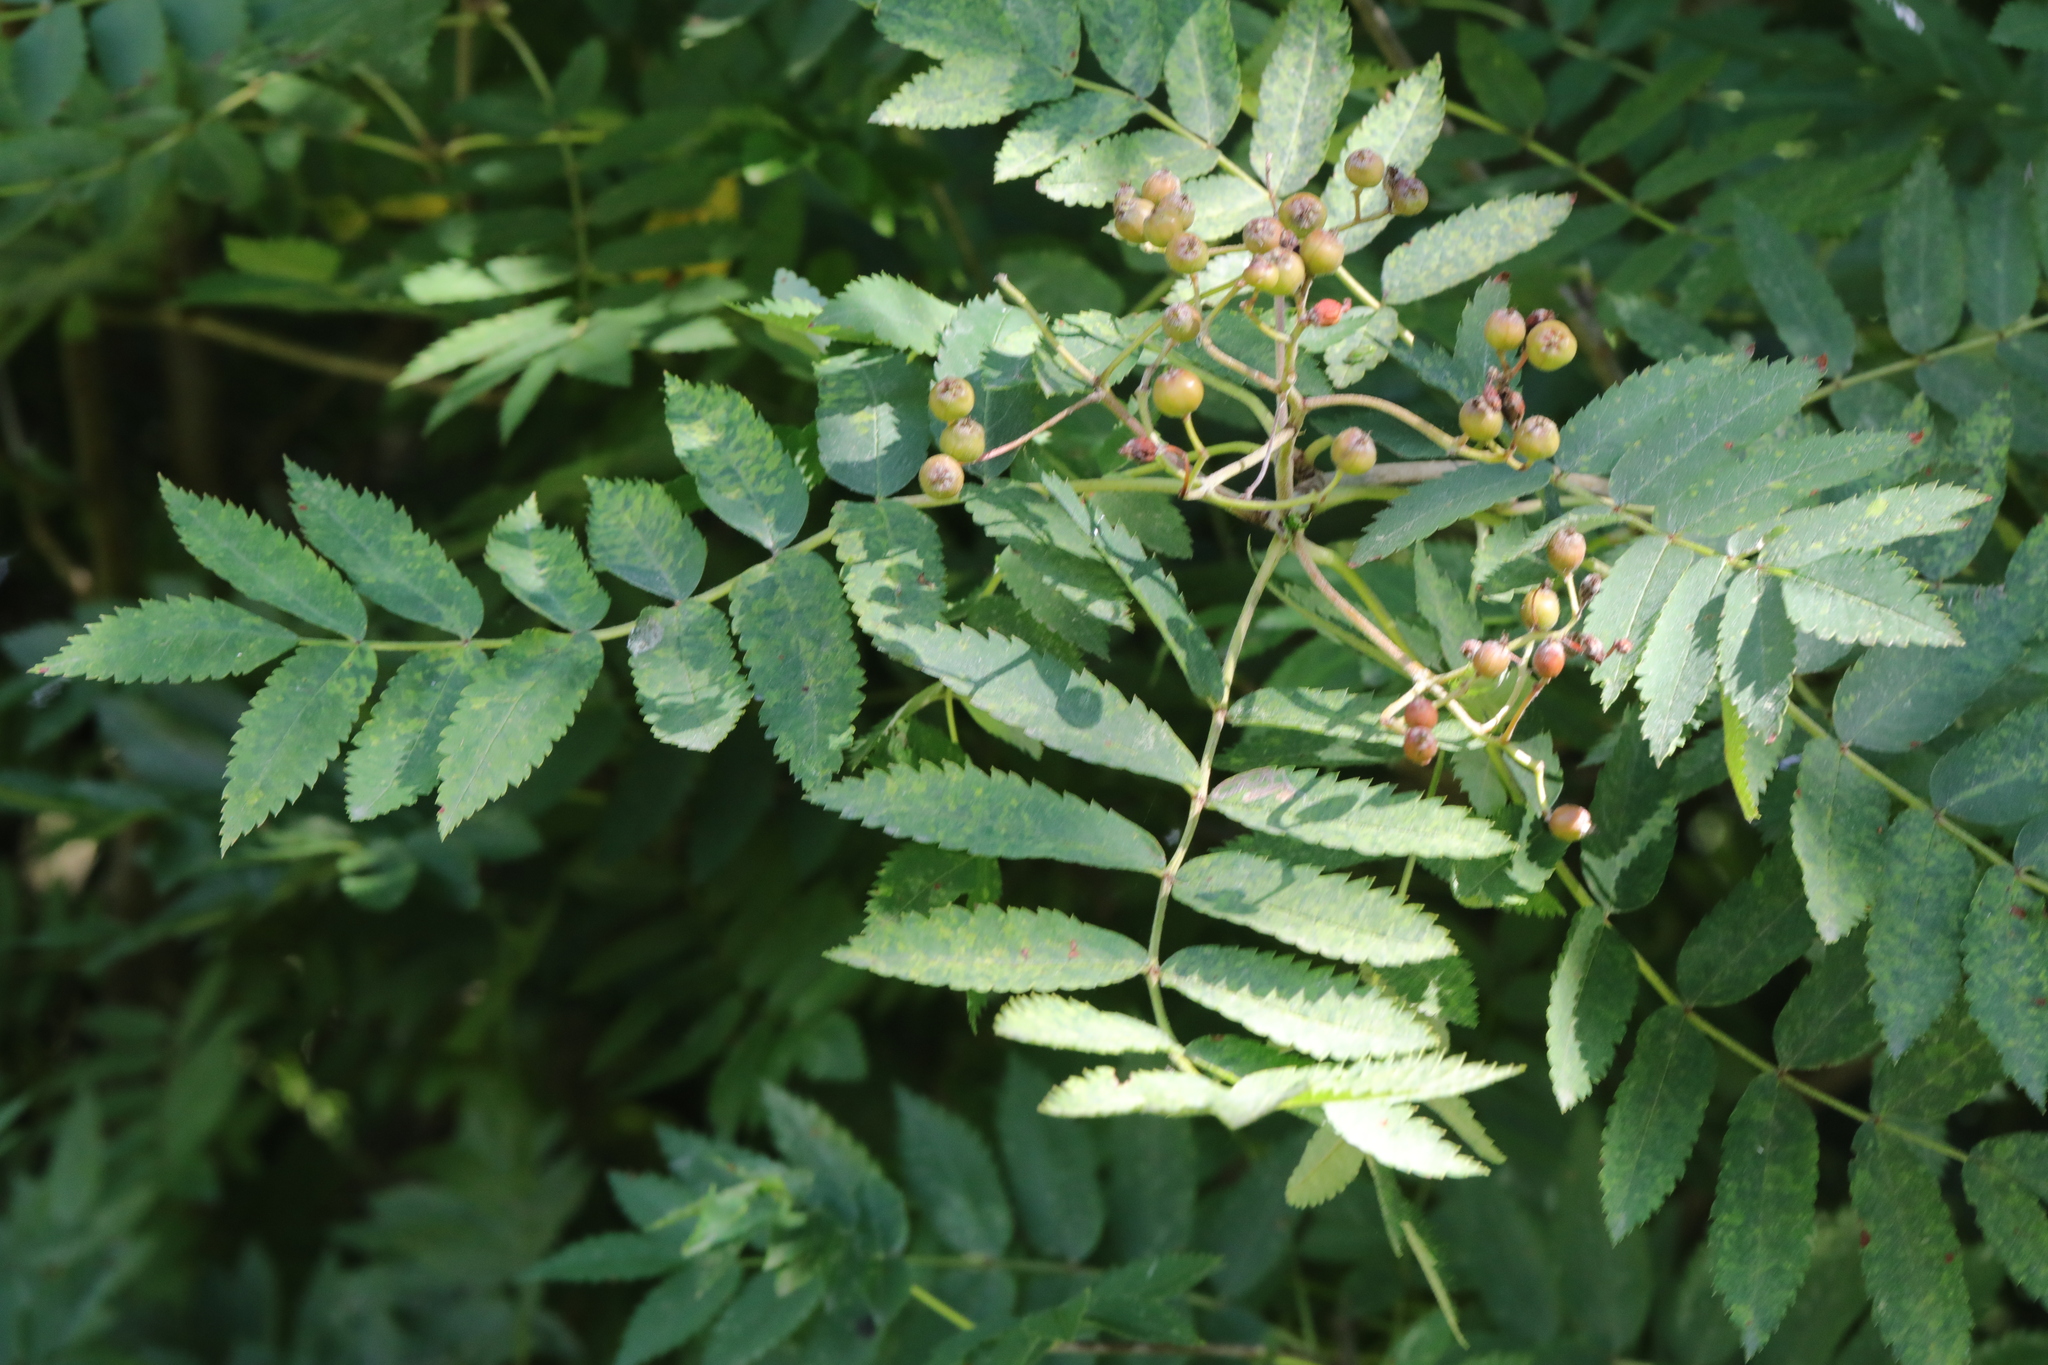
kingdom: Plantae
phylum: Tracheophyta
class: Magnoliopsida
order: Rosales
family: Rosaceae
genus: Sorbus
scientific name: Sorbus aucuparia
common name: Rowan
